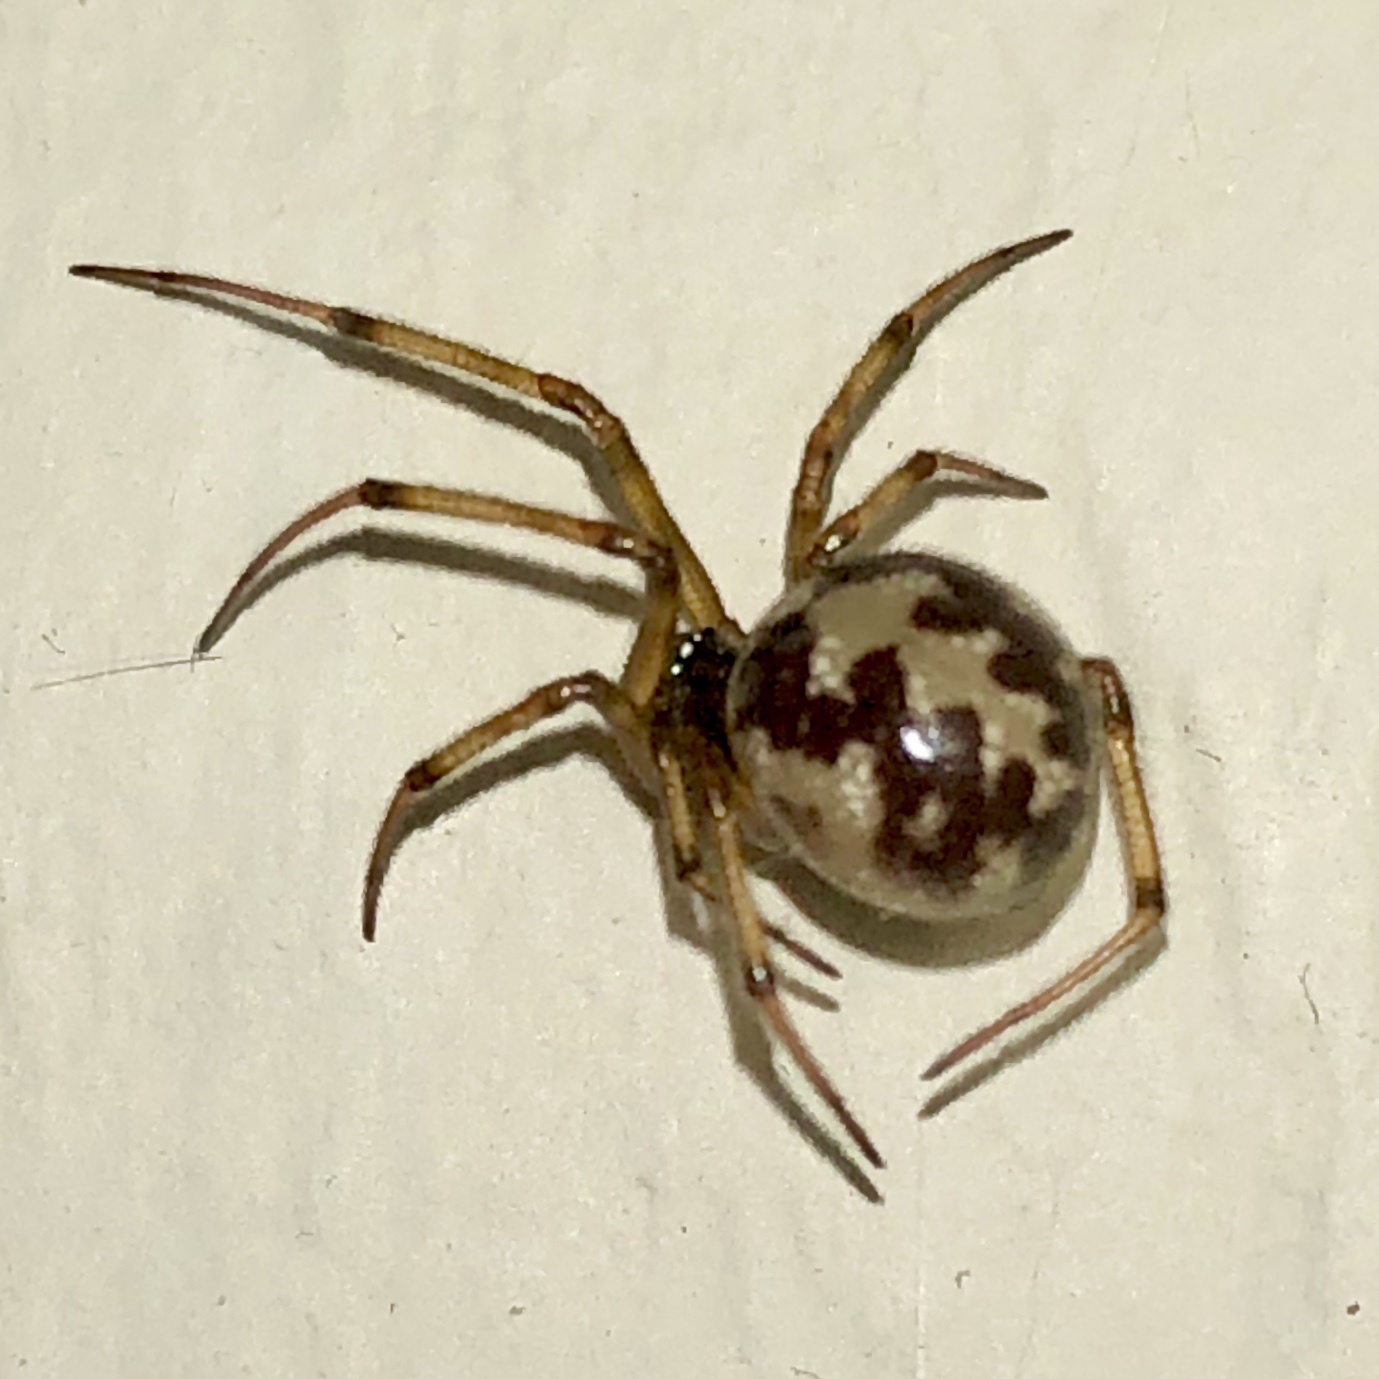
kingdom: Animalia
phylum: Arthropoda
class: Arachnida
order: Araneae
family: Theridiidae
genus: Steatoda
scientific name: Steatoda triangulosa
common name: Triangulate bud spider
